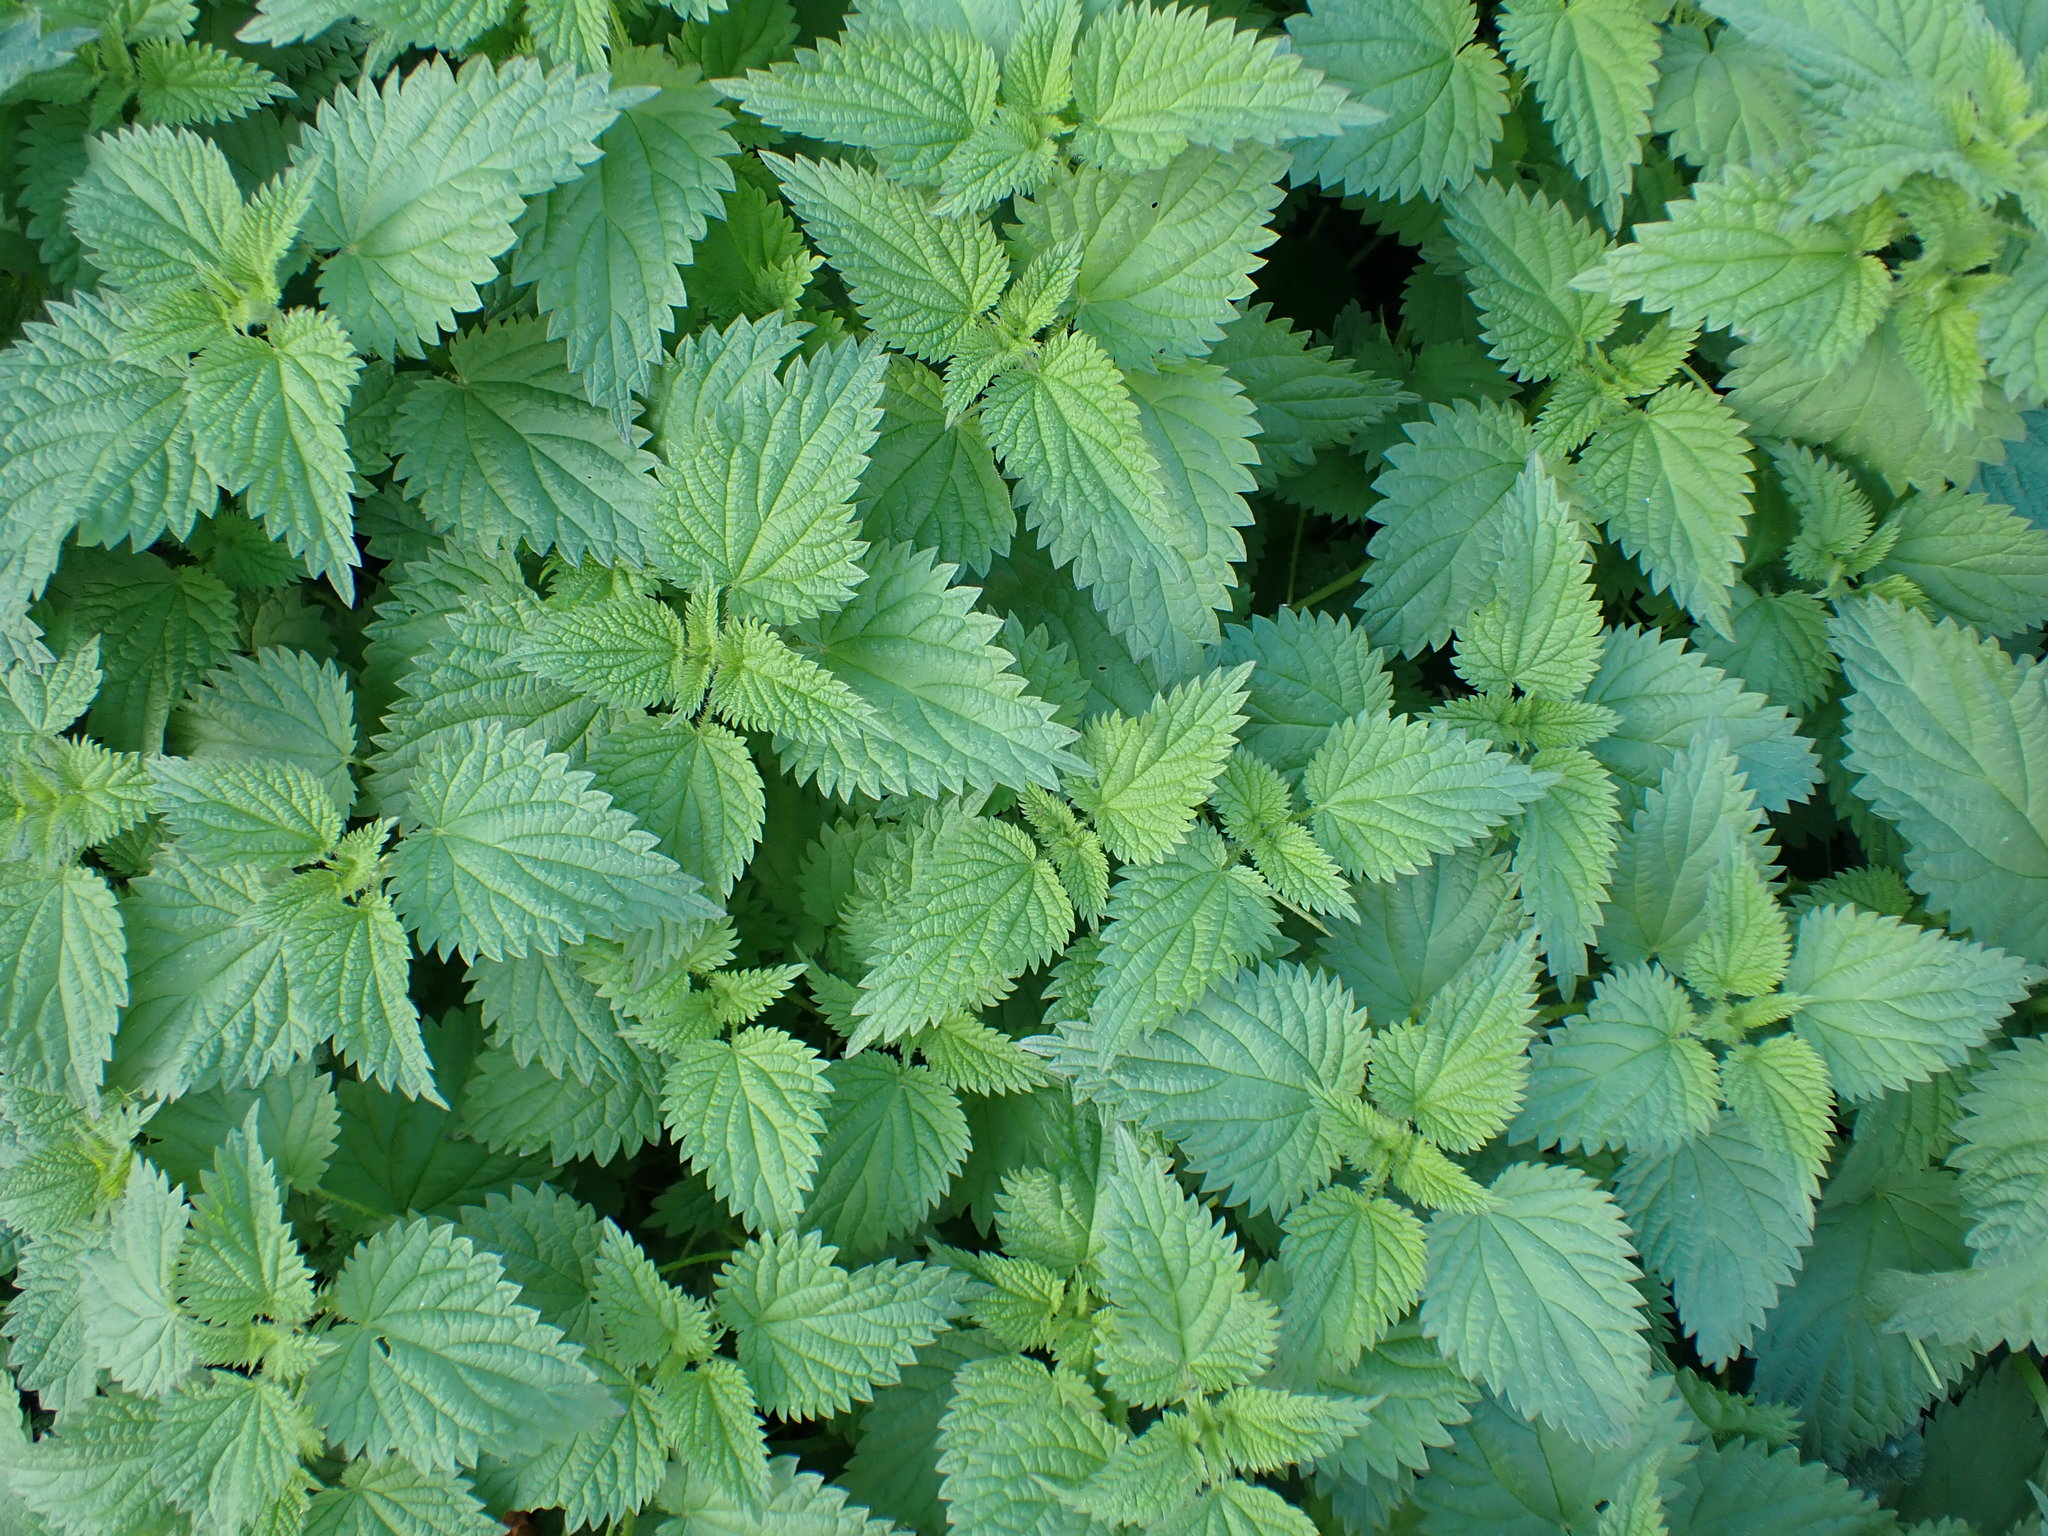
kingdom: Plantae
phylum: Tracheophyta
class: Magnoliopsida
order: Rosales
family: Urticaceae
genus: Urtica
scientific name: Urtica dioica
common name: Common nettle
